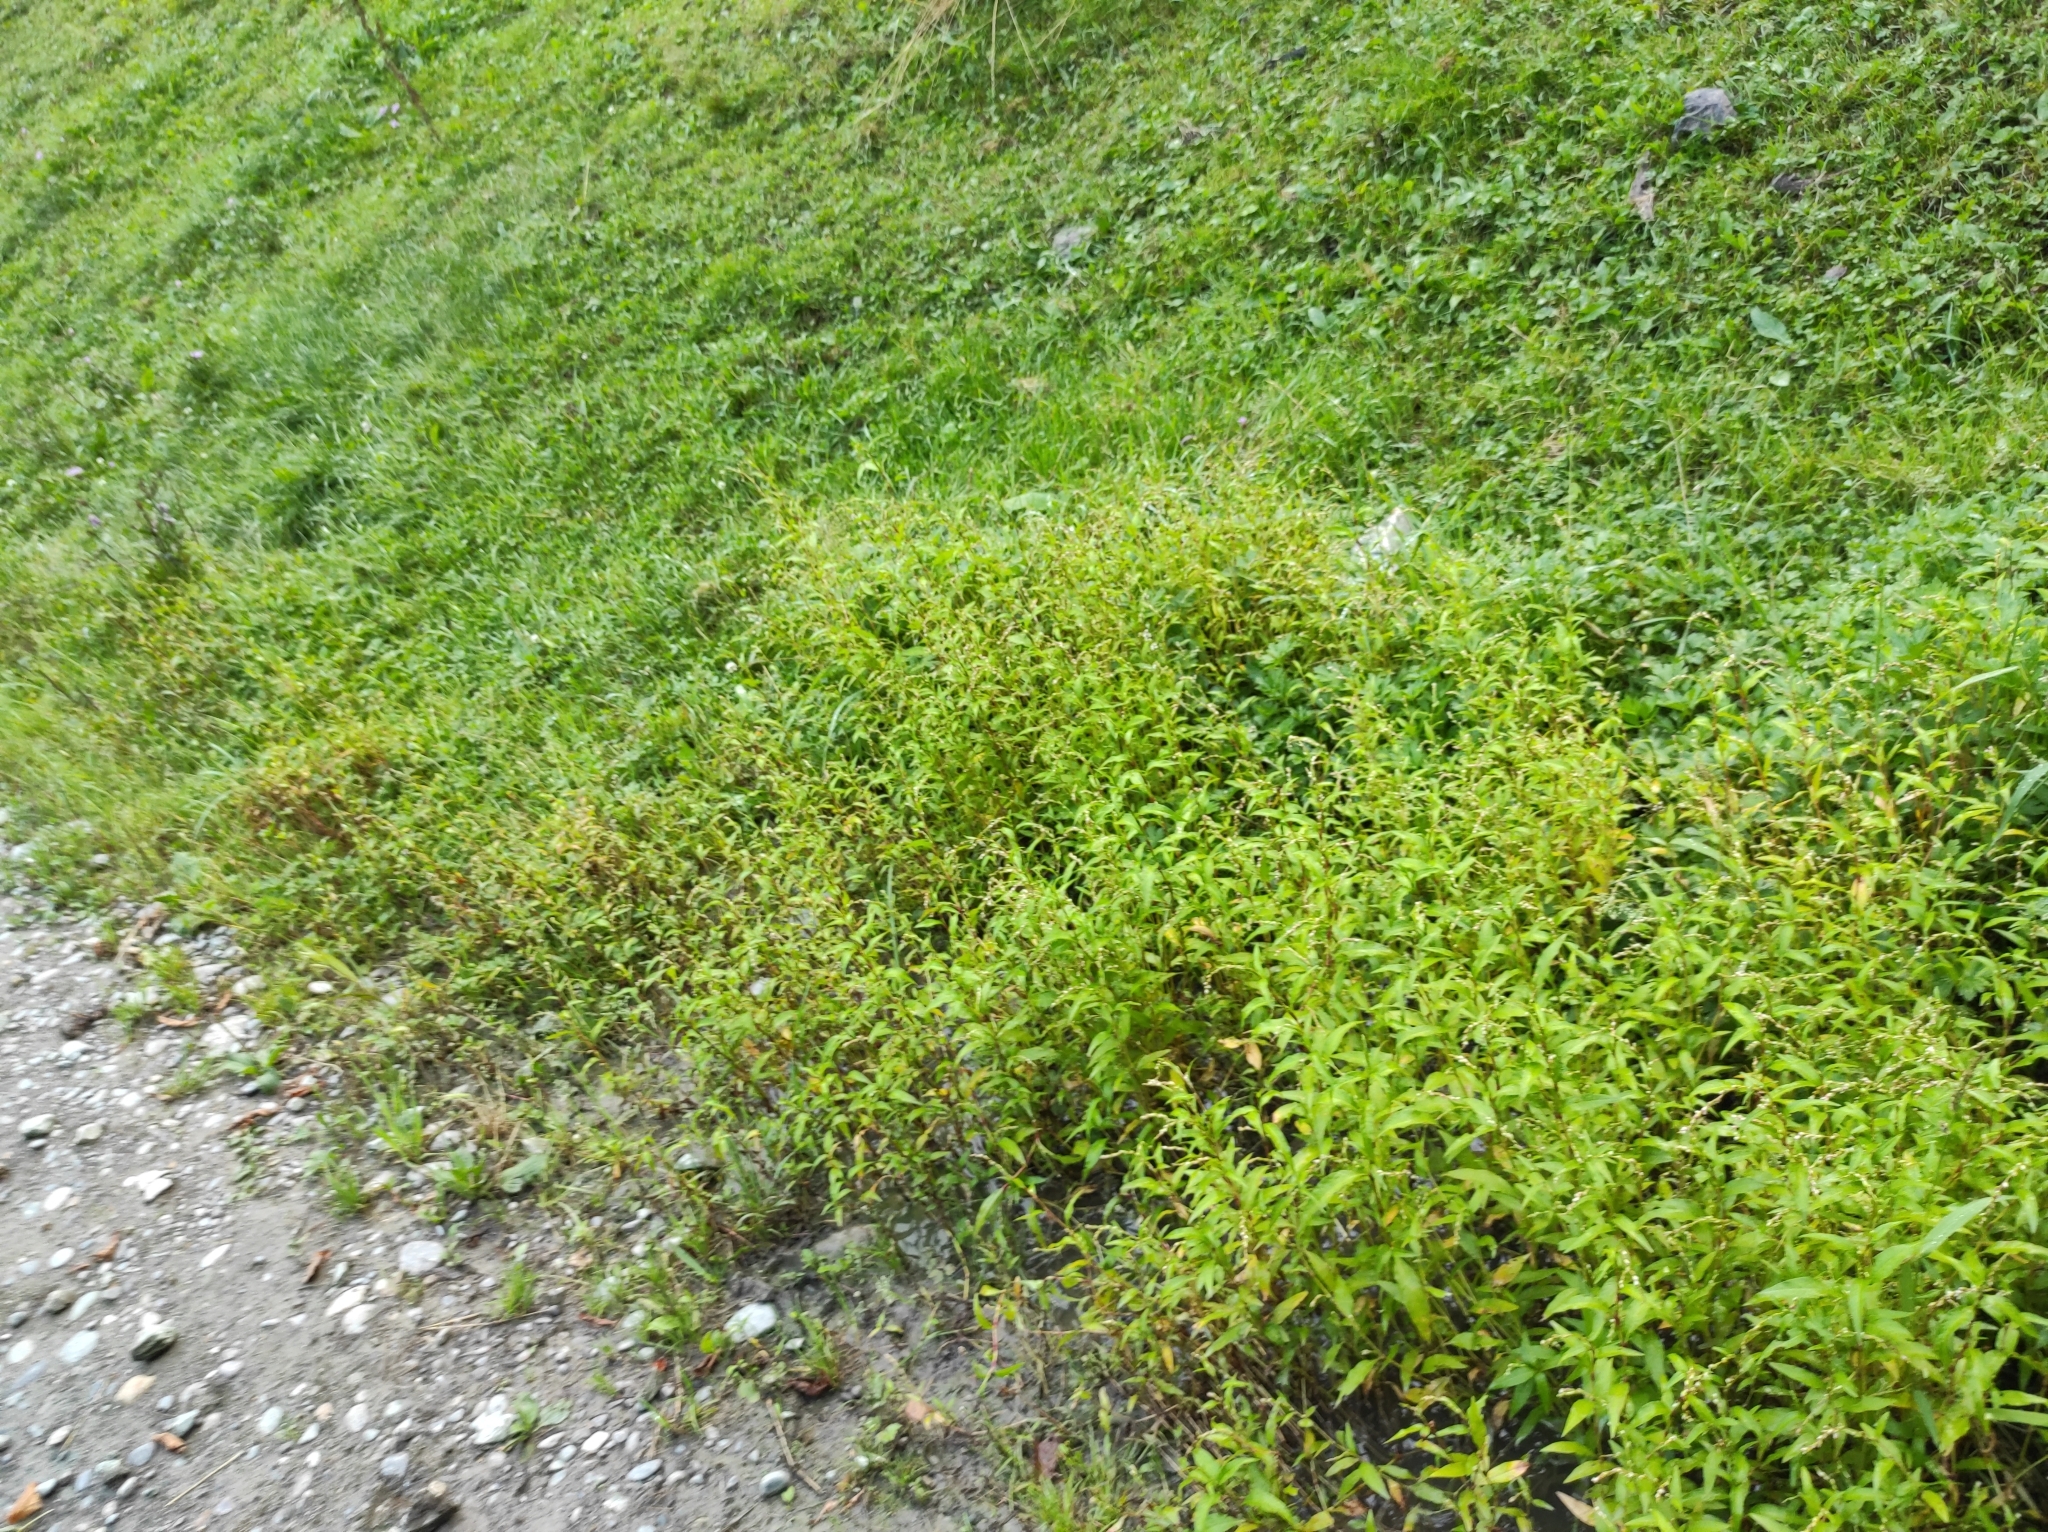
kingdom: Plantae
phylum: Tracheophyta
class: Magnoliopsida
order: Caryophyllales
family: Polygonaceae
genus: Persicaria
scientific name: Persicaria hydropiper
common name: Water-pepper
